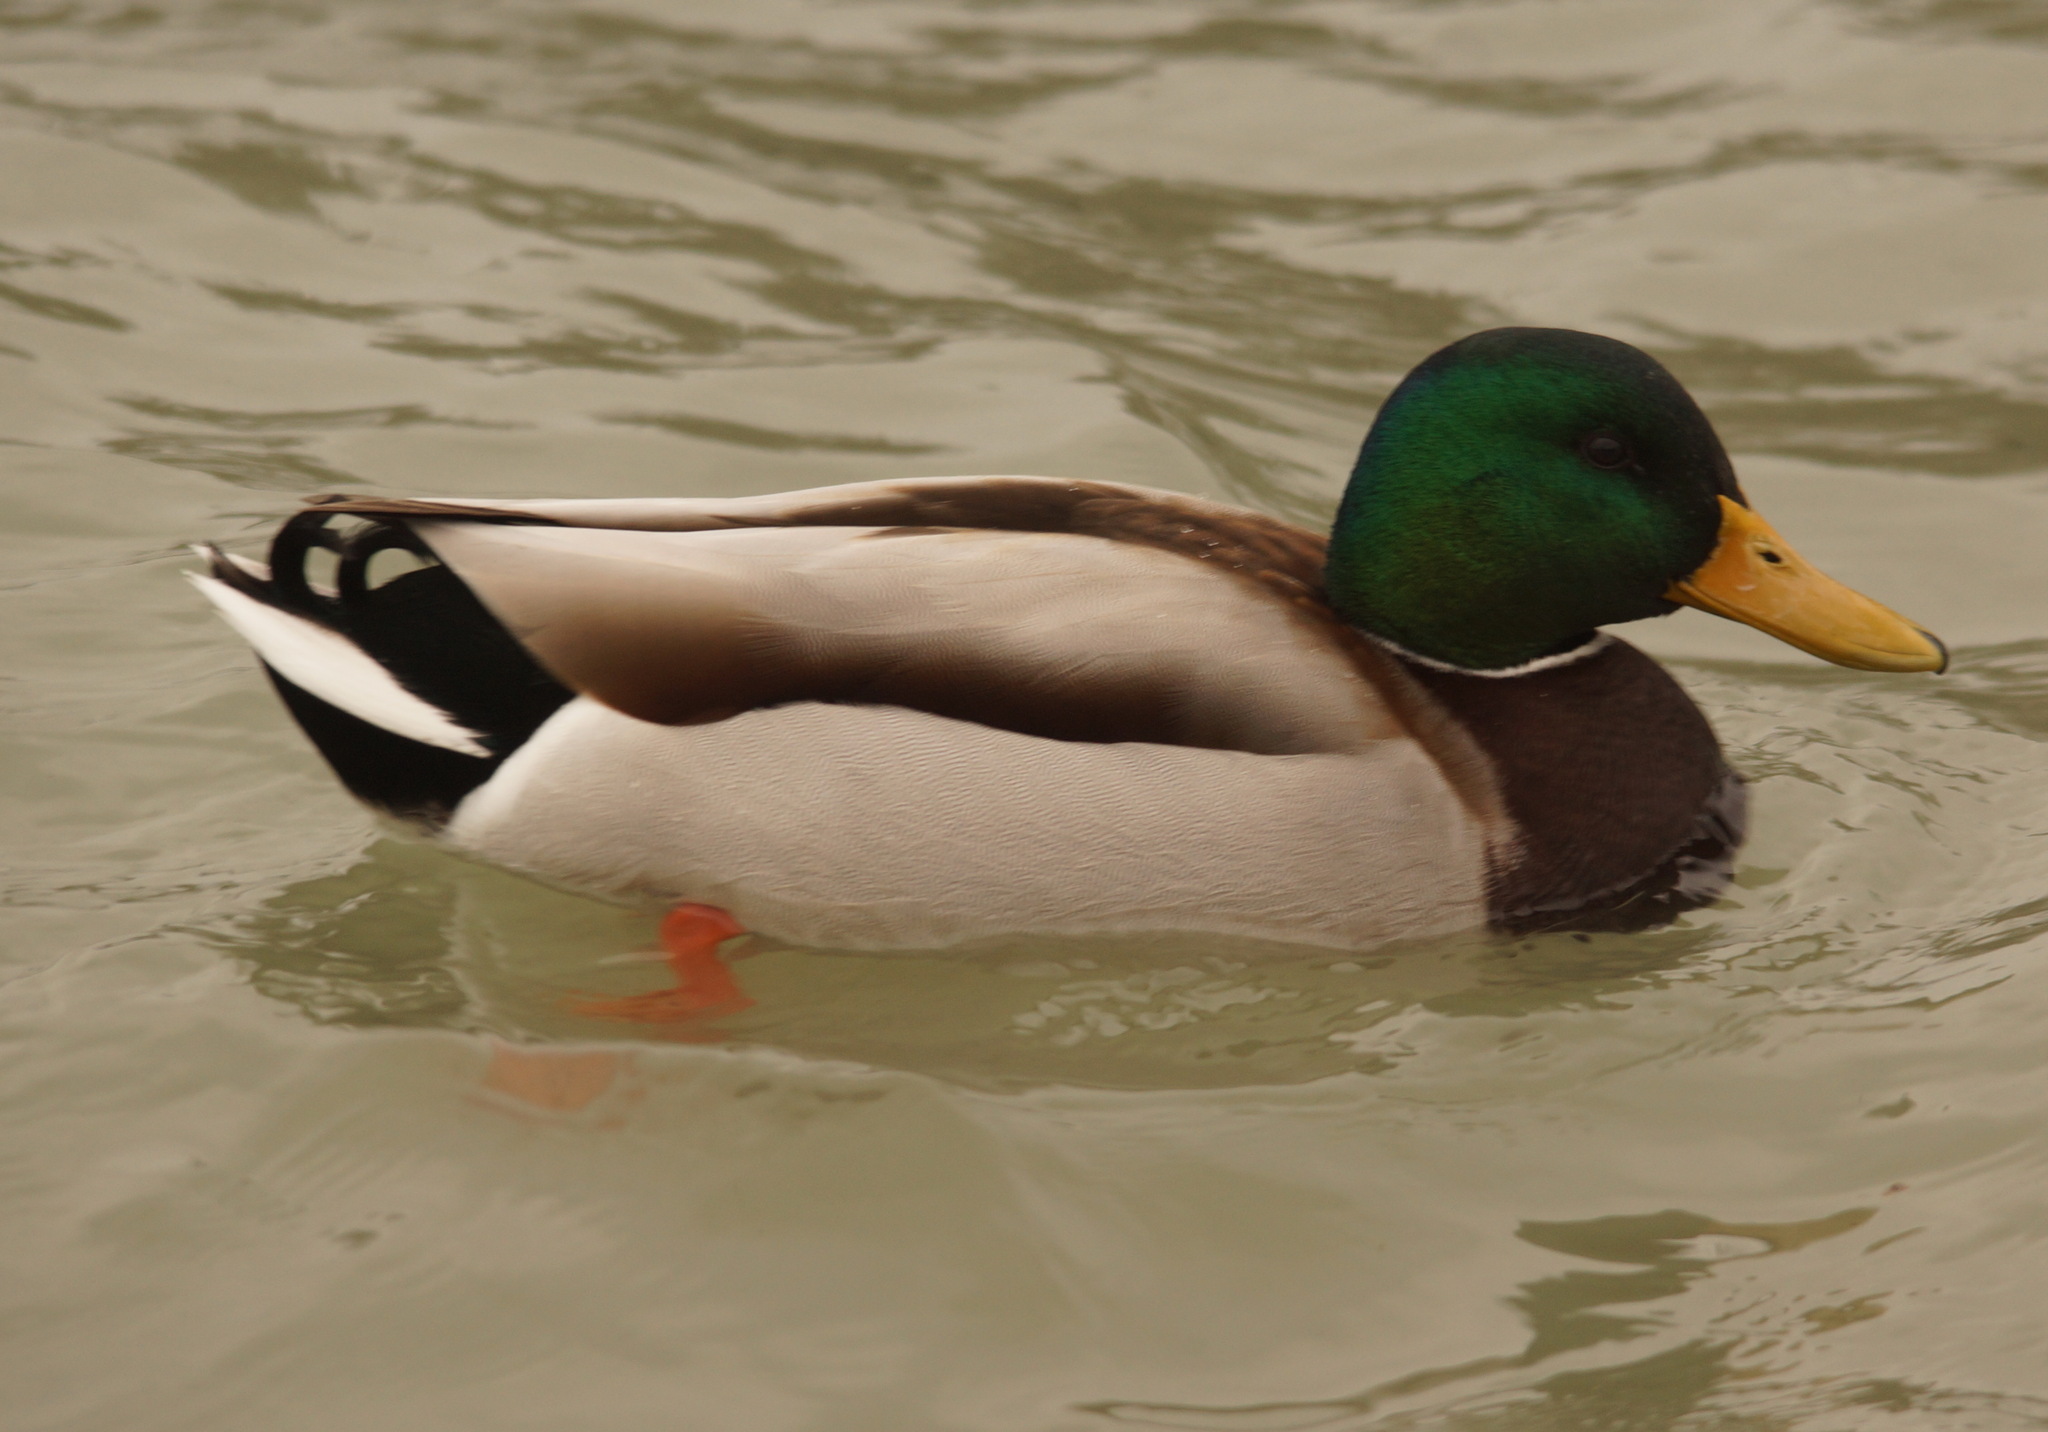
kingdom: Animalia
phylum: Chordata
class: Aves
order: Anseriformes
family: Anatidae
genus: Anas
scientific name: Anas platyrhynchos
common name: Mallard
